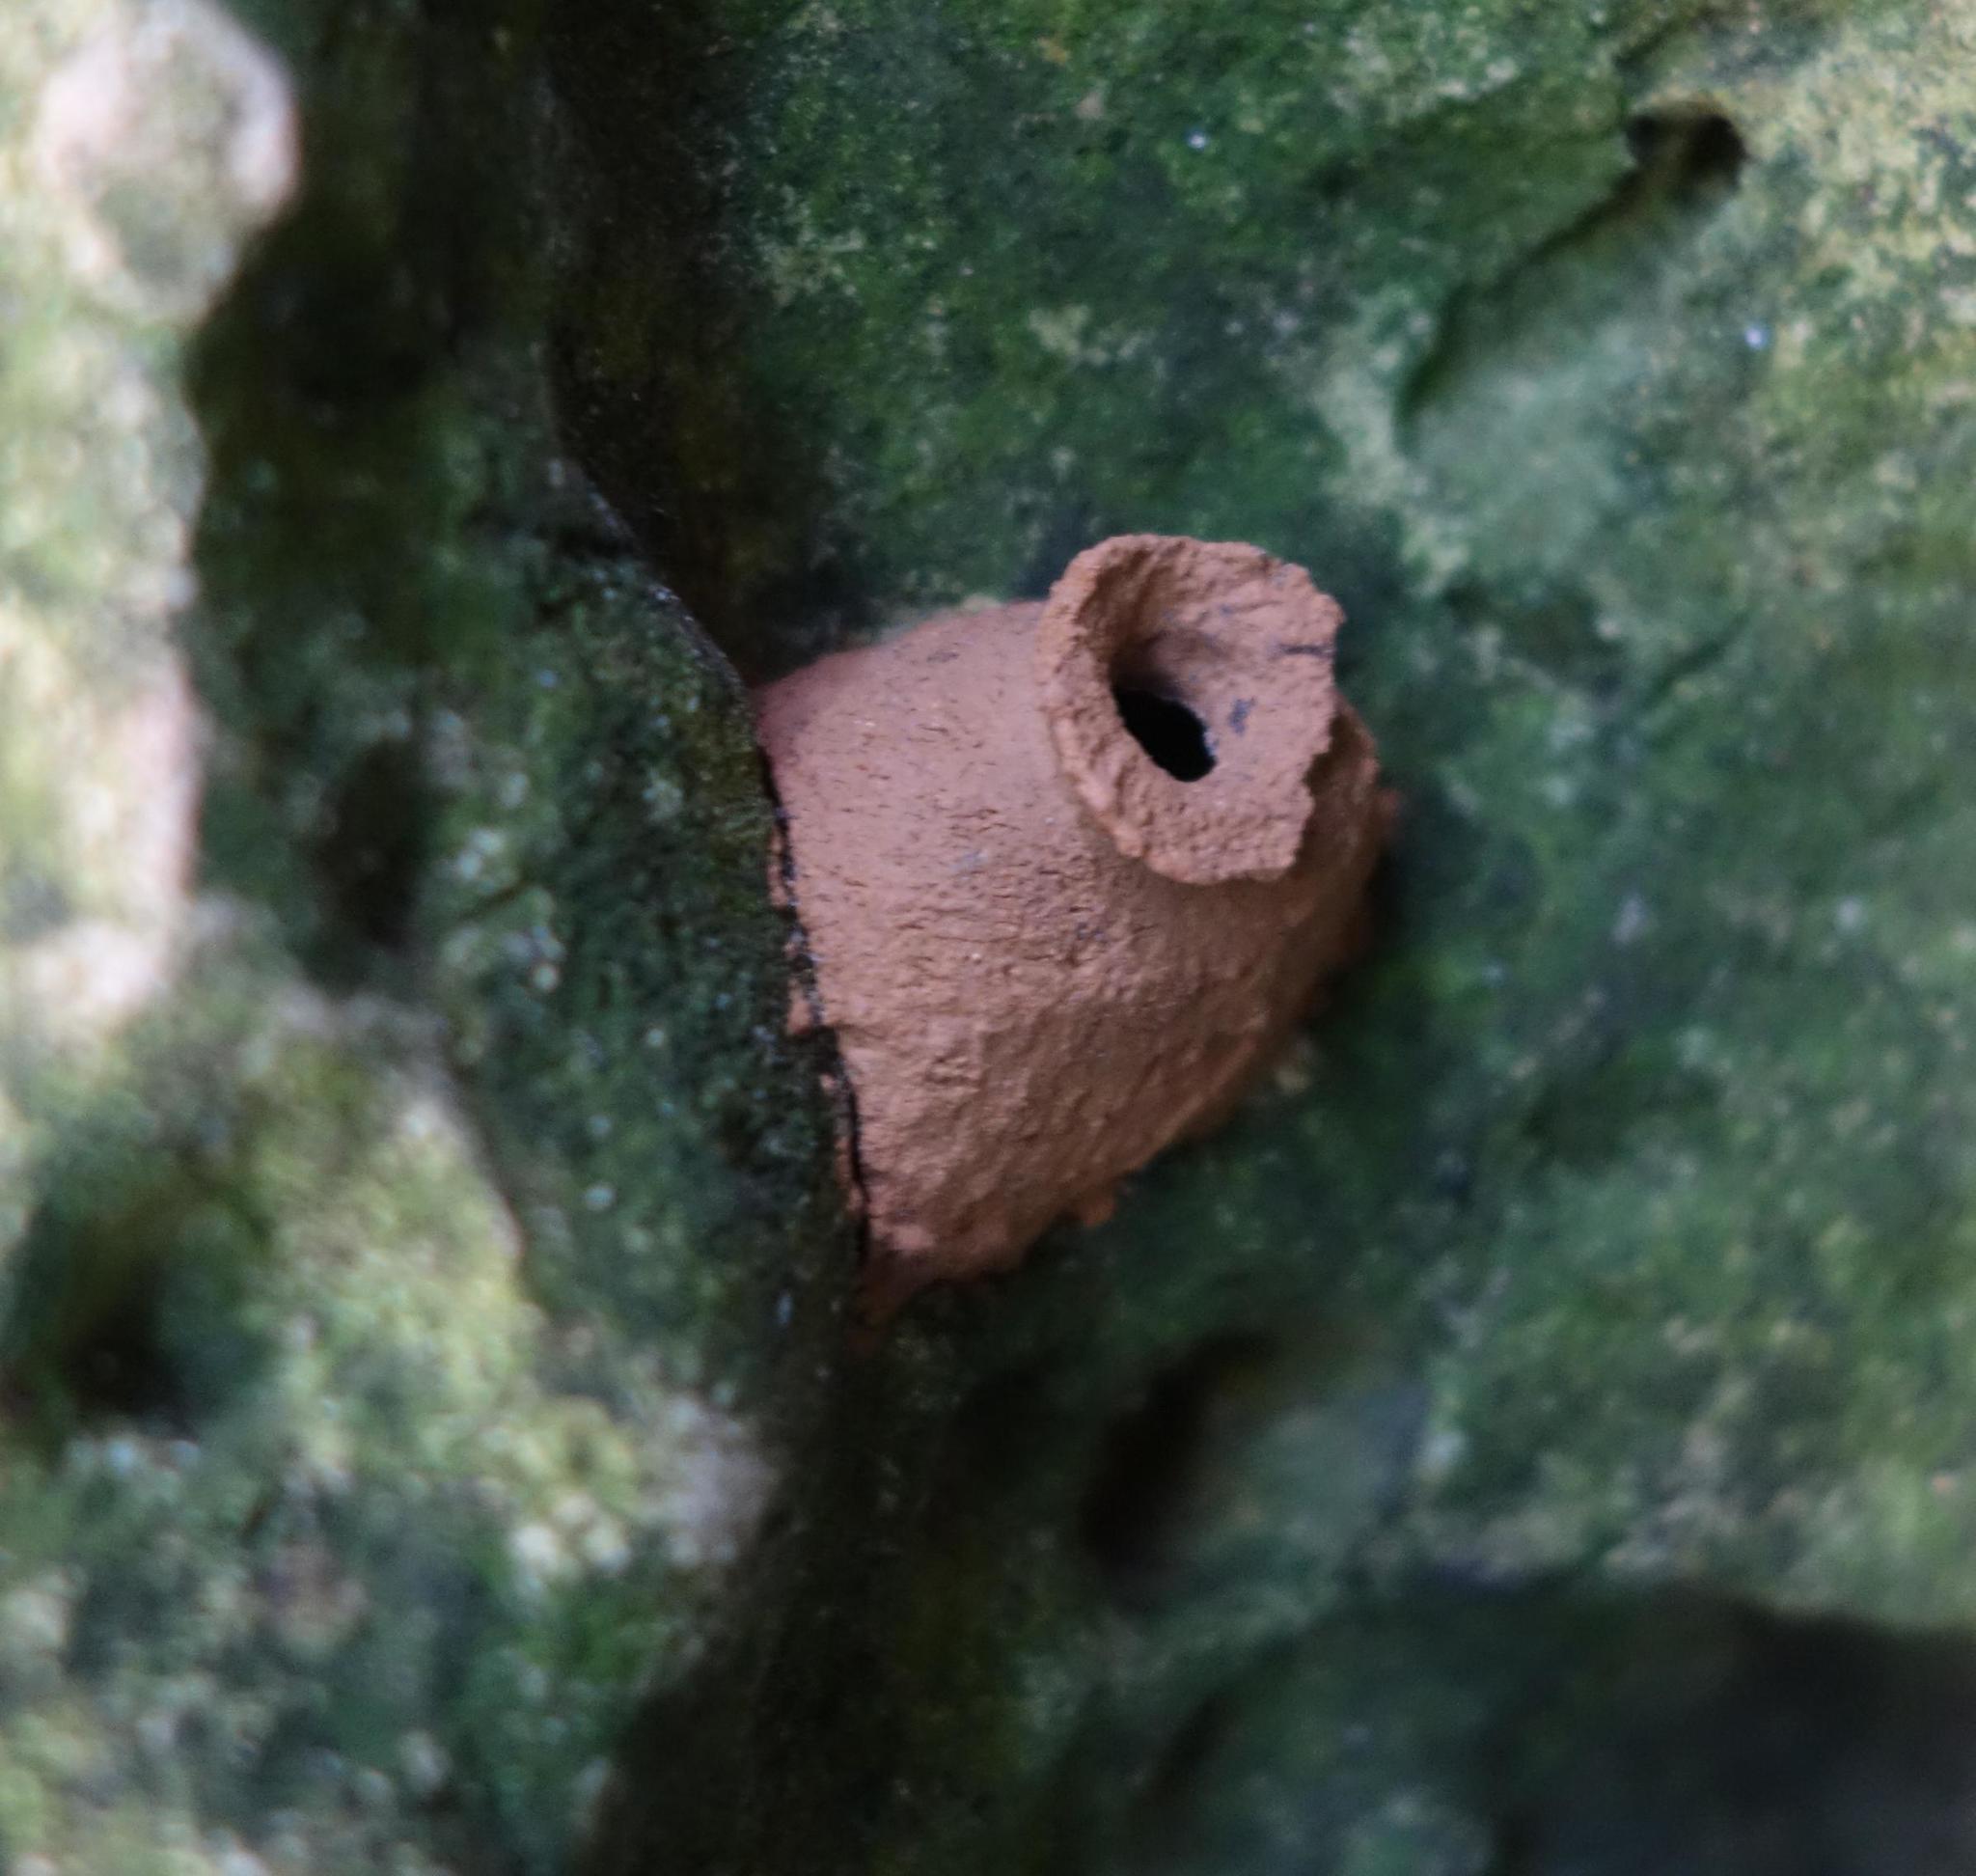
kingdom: Animalia
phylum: Arthropoda
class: Insecta
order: Hymenoptera
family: Eumenidae
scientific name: Eumenidae
